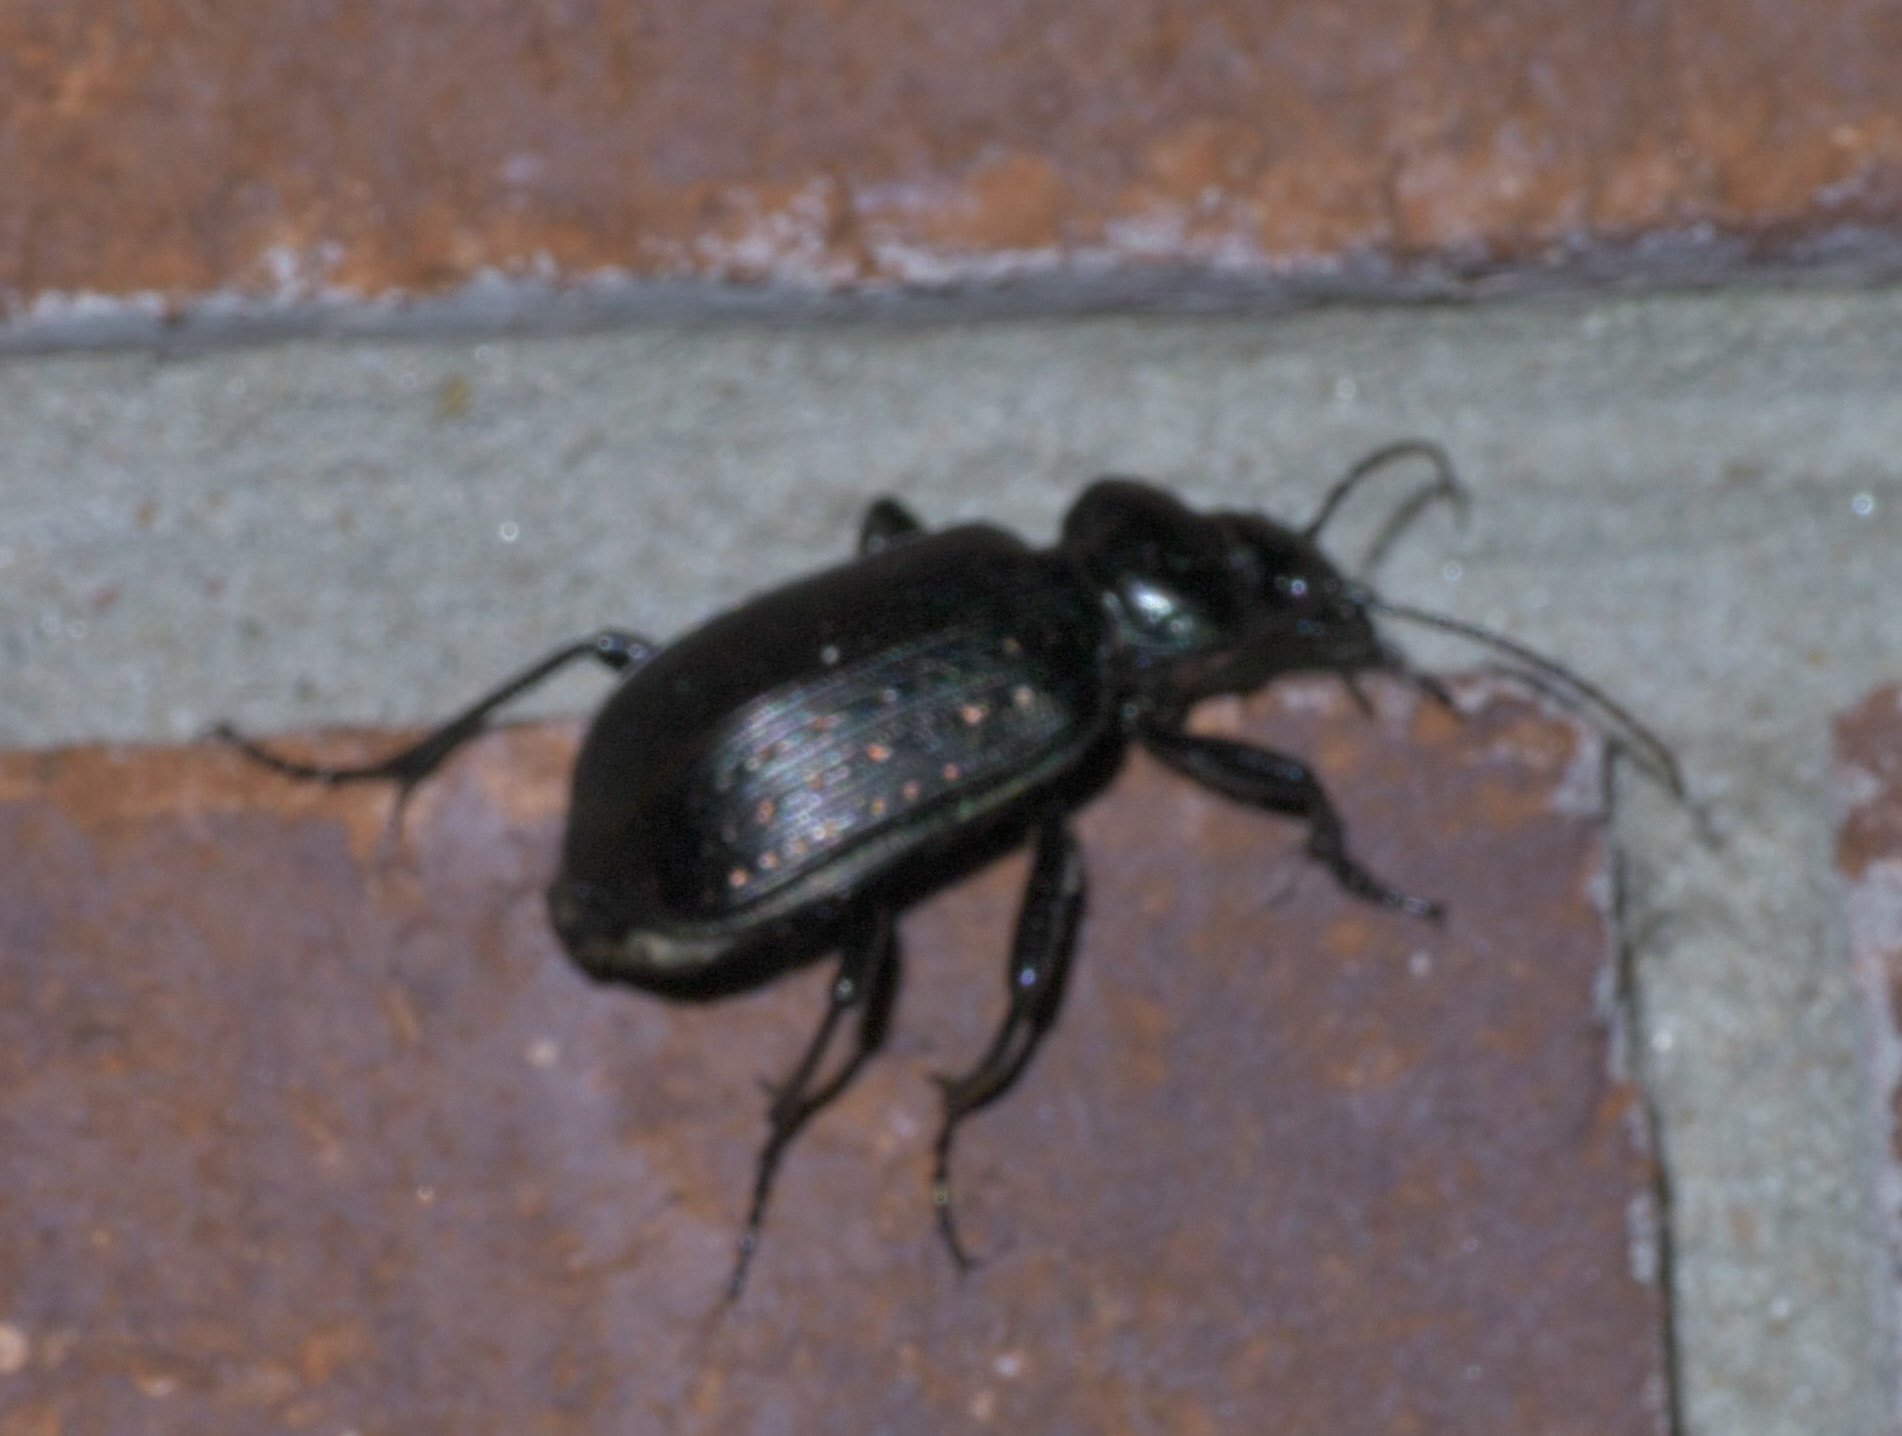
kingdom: Animalia
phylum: Arthropoda
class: Insecta
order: Coleoptera
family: Carabidae
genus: Calosoma
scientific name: Calosoma sayi
